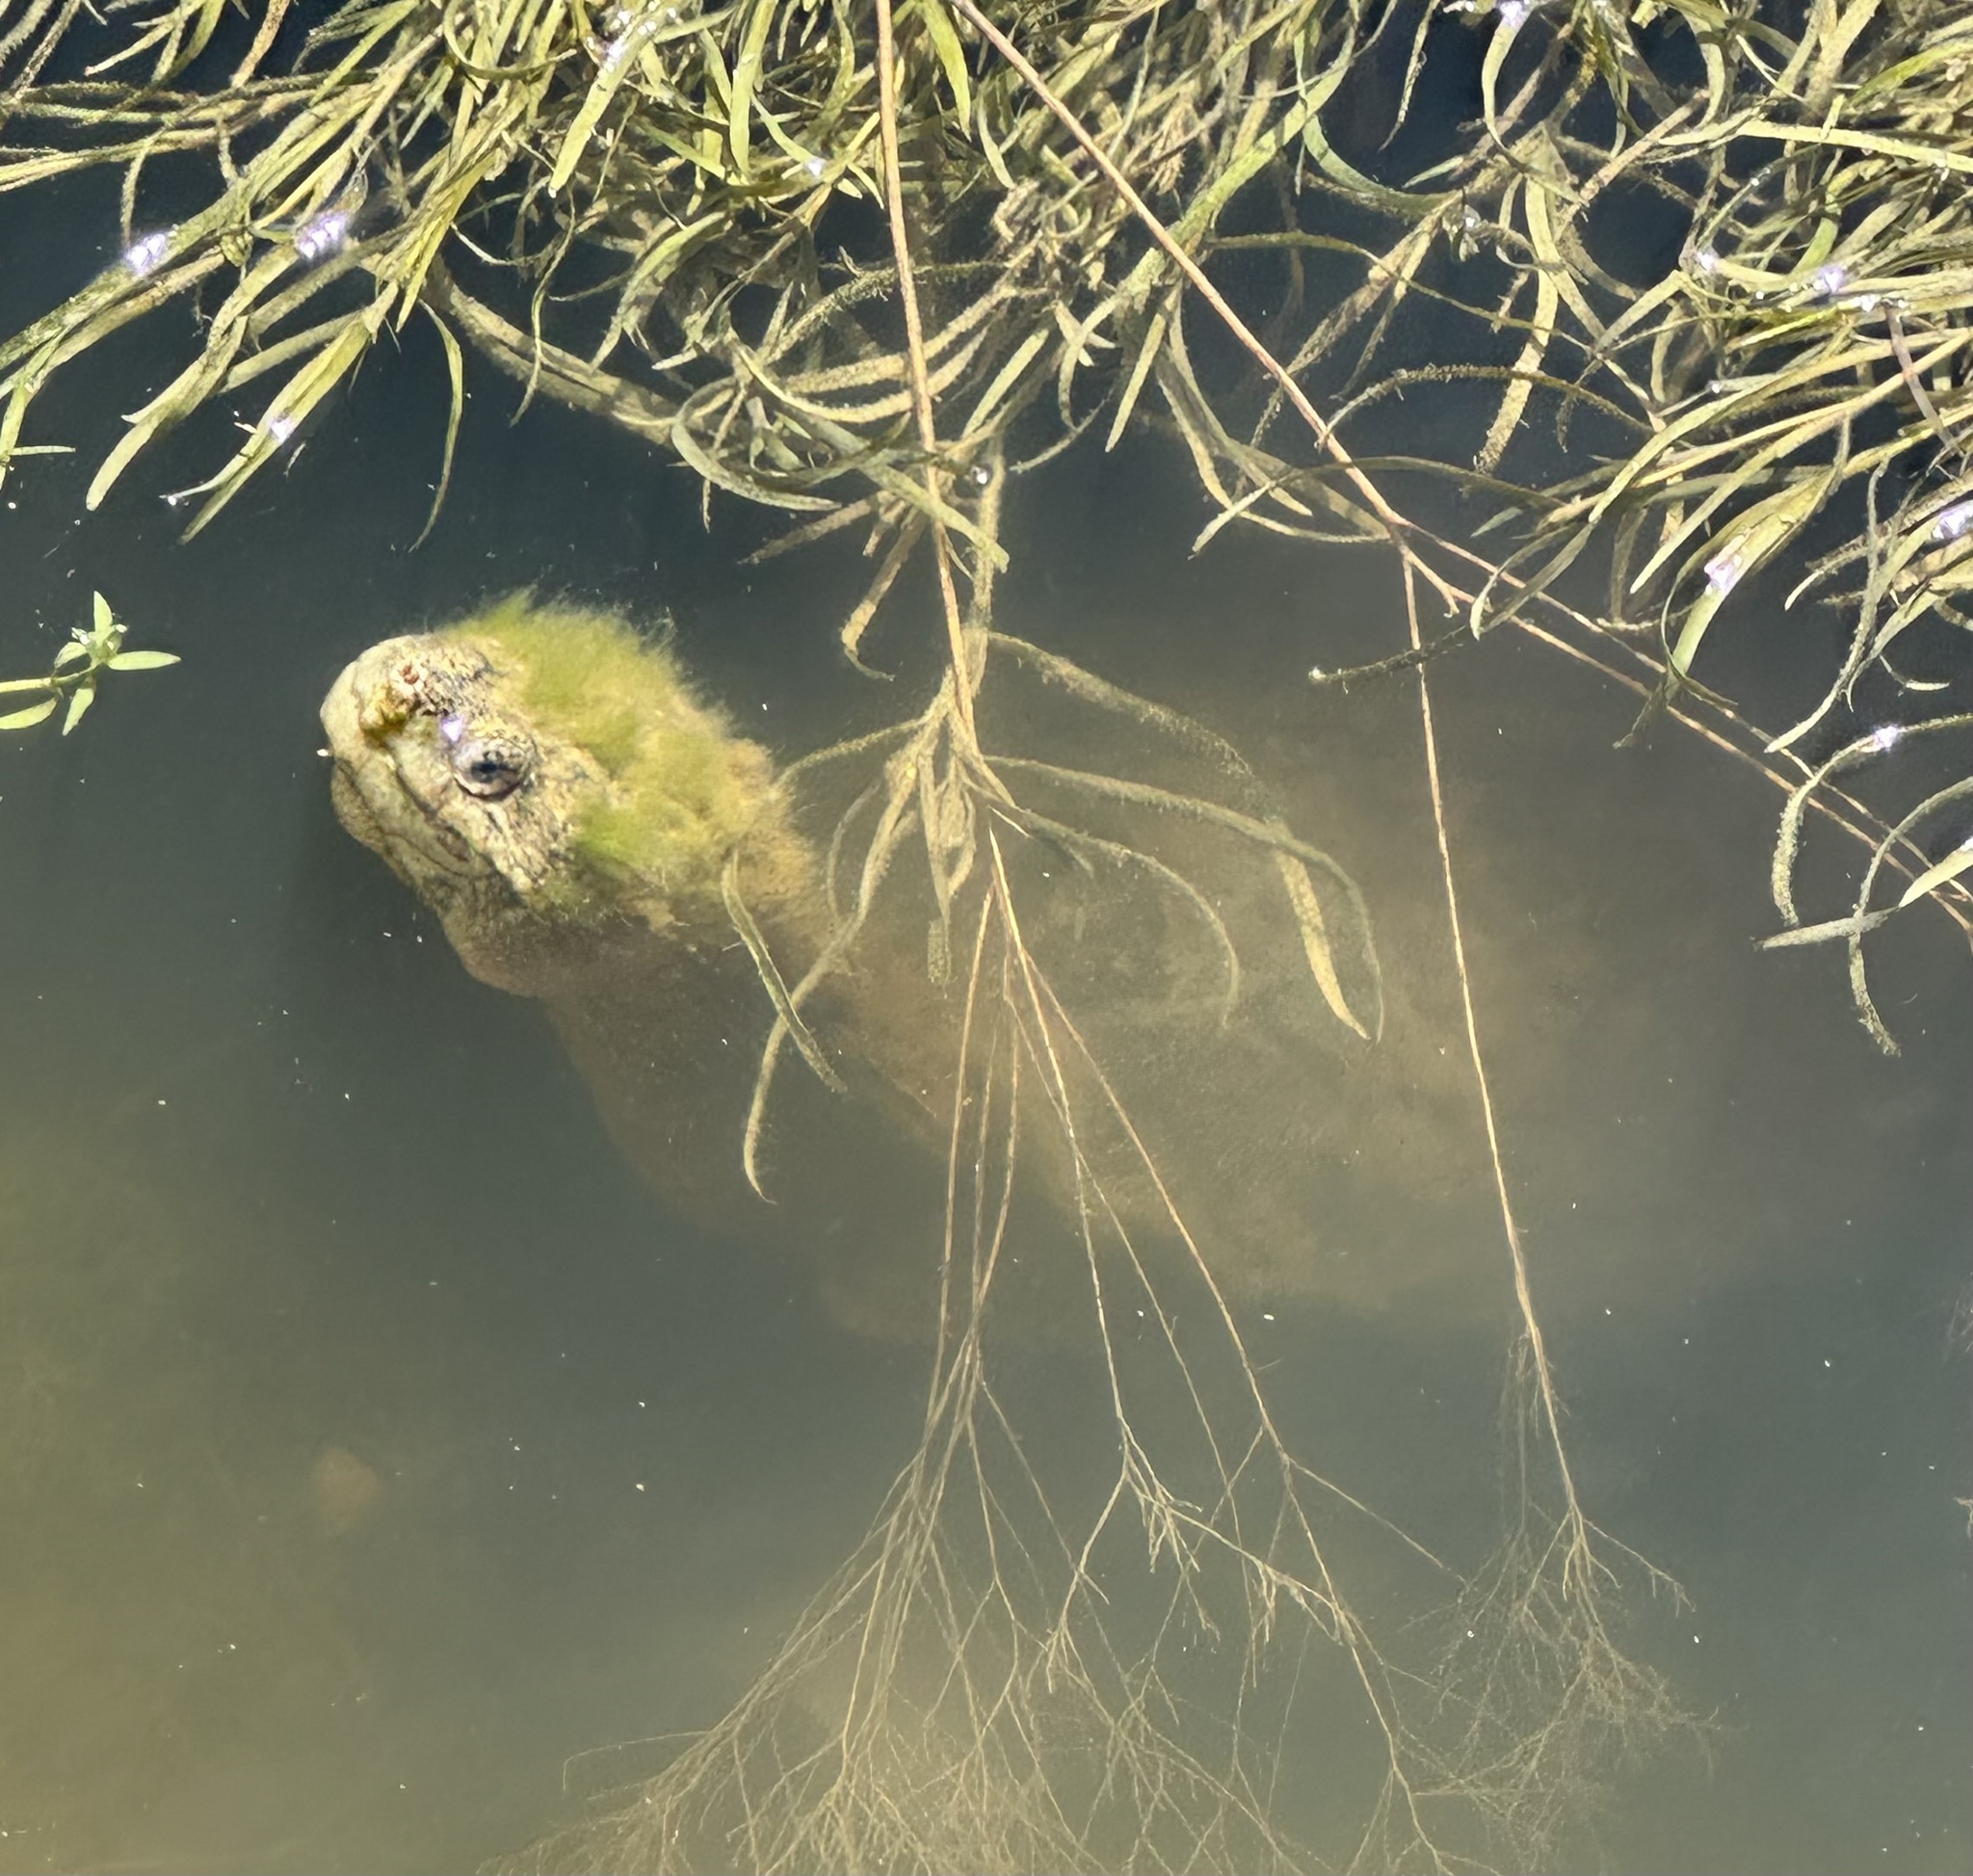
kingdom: Animalia
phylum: Chordata
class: Testudines
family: Chelydridae
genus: Chelydra
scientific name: Chelydra serpentina
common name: Common snapping turtle
